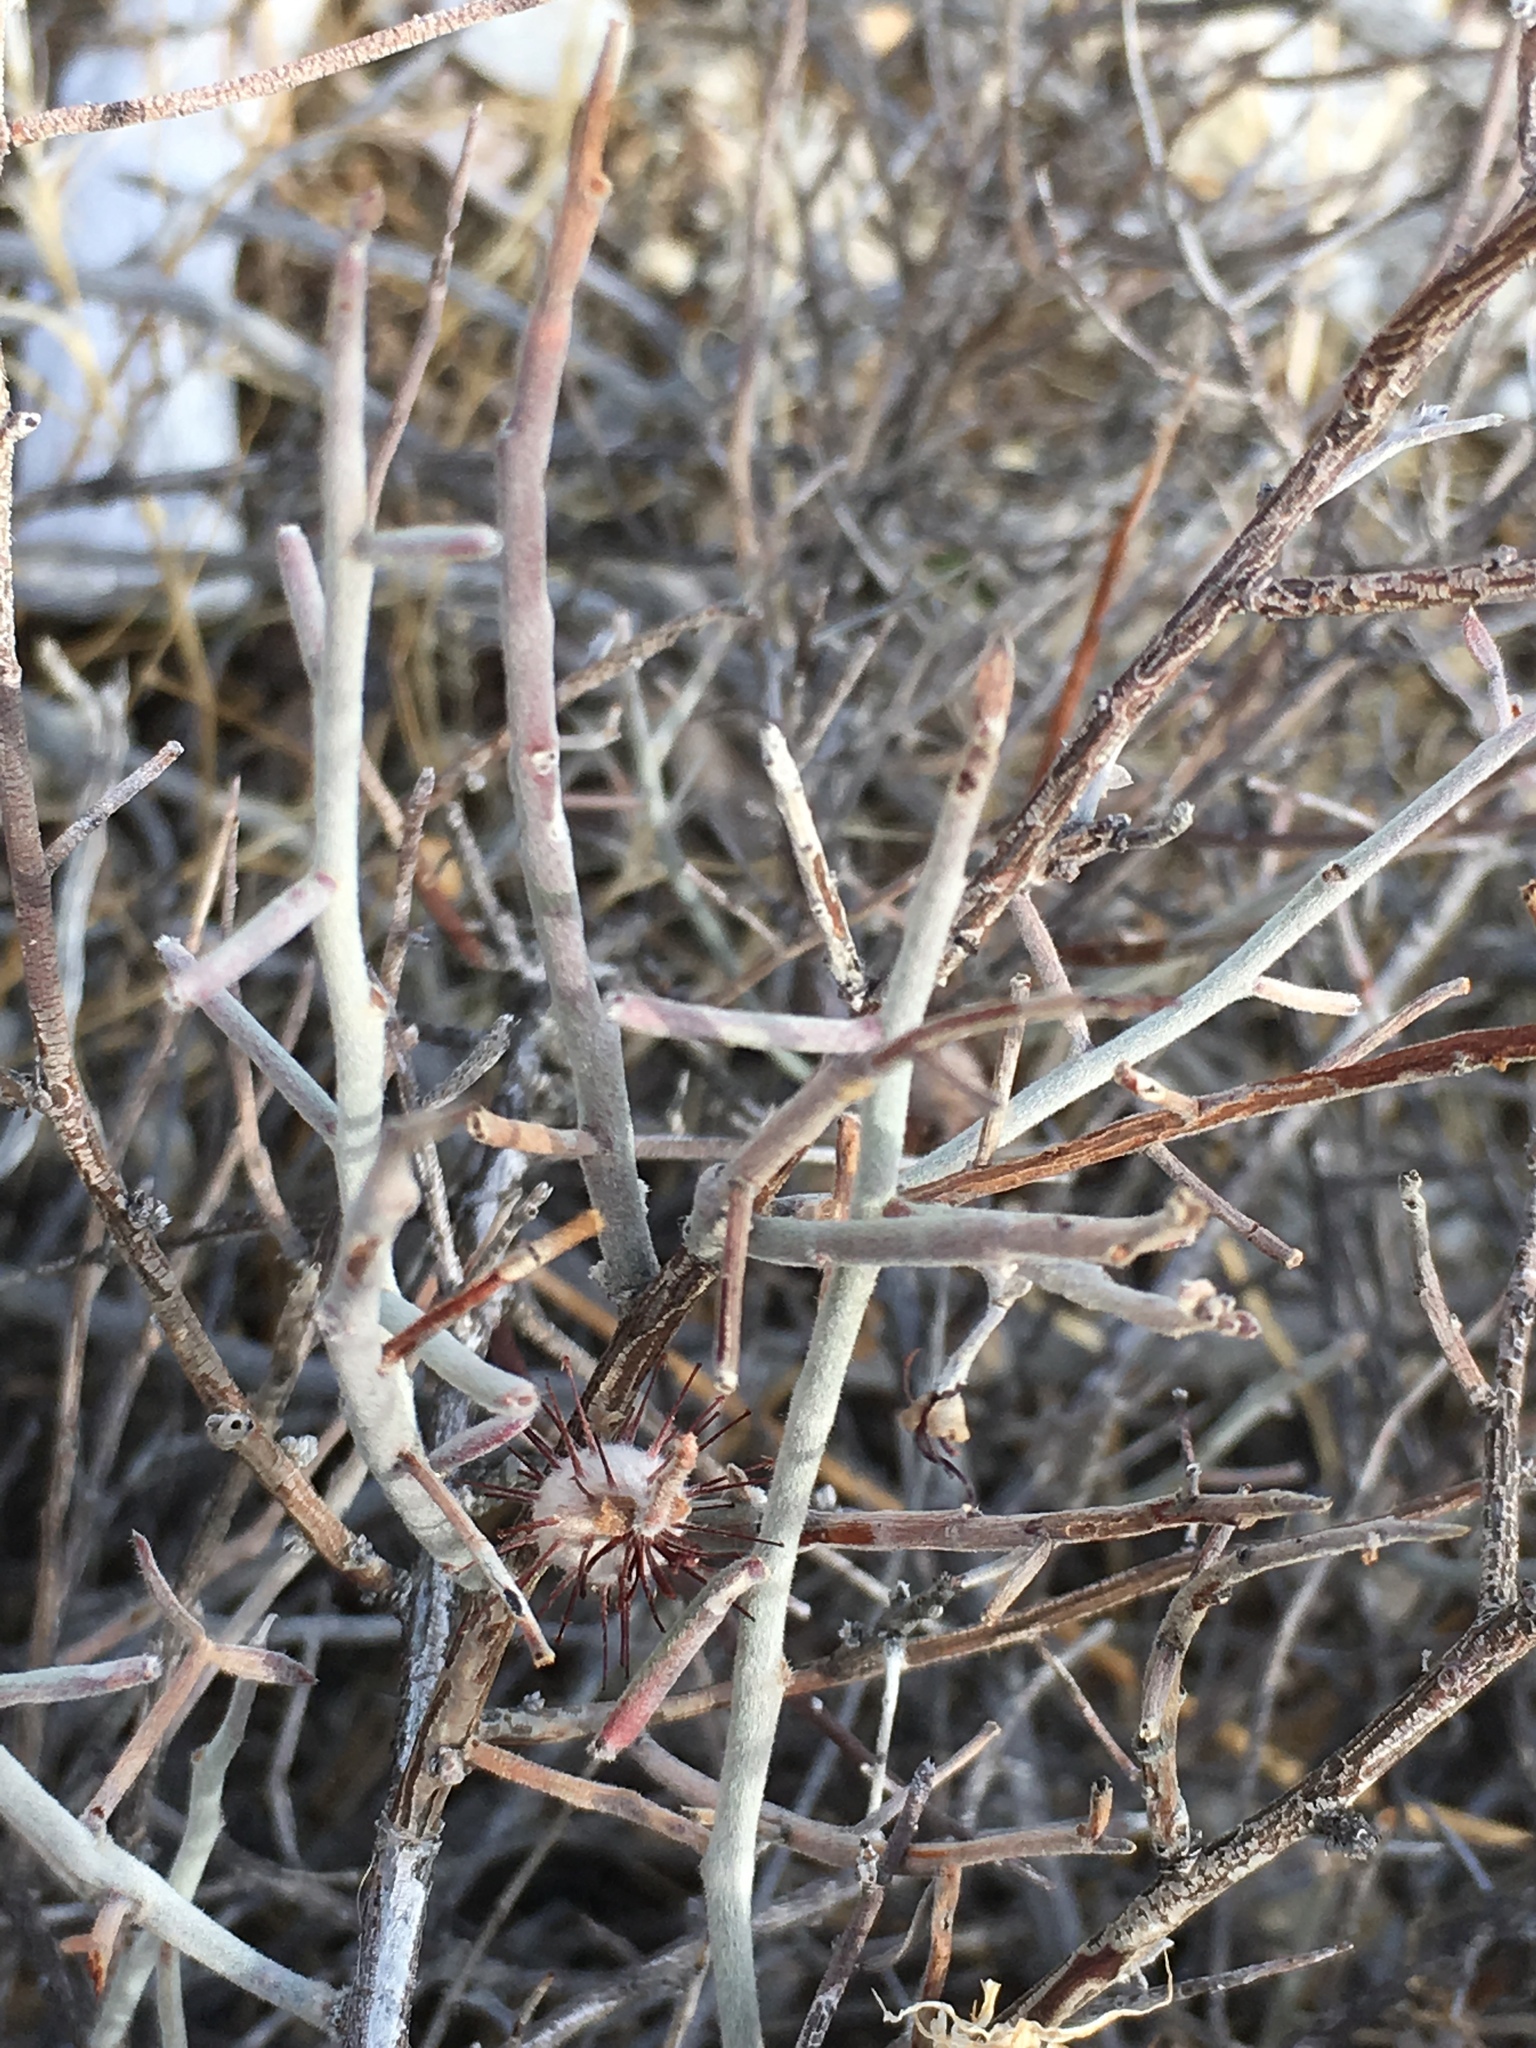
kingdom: Plantae
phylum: Tracheophyta
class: Magnoliopsida
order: Zygophyllales
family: Krameriaceae
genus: Krameria
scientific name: Krameria bicolor
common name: White ratany
